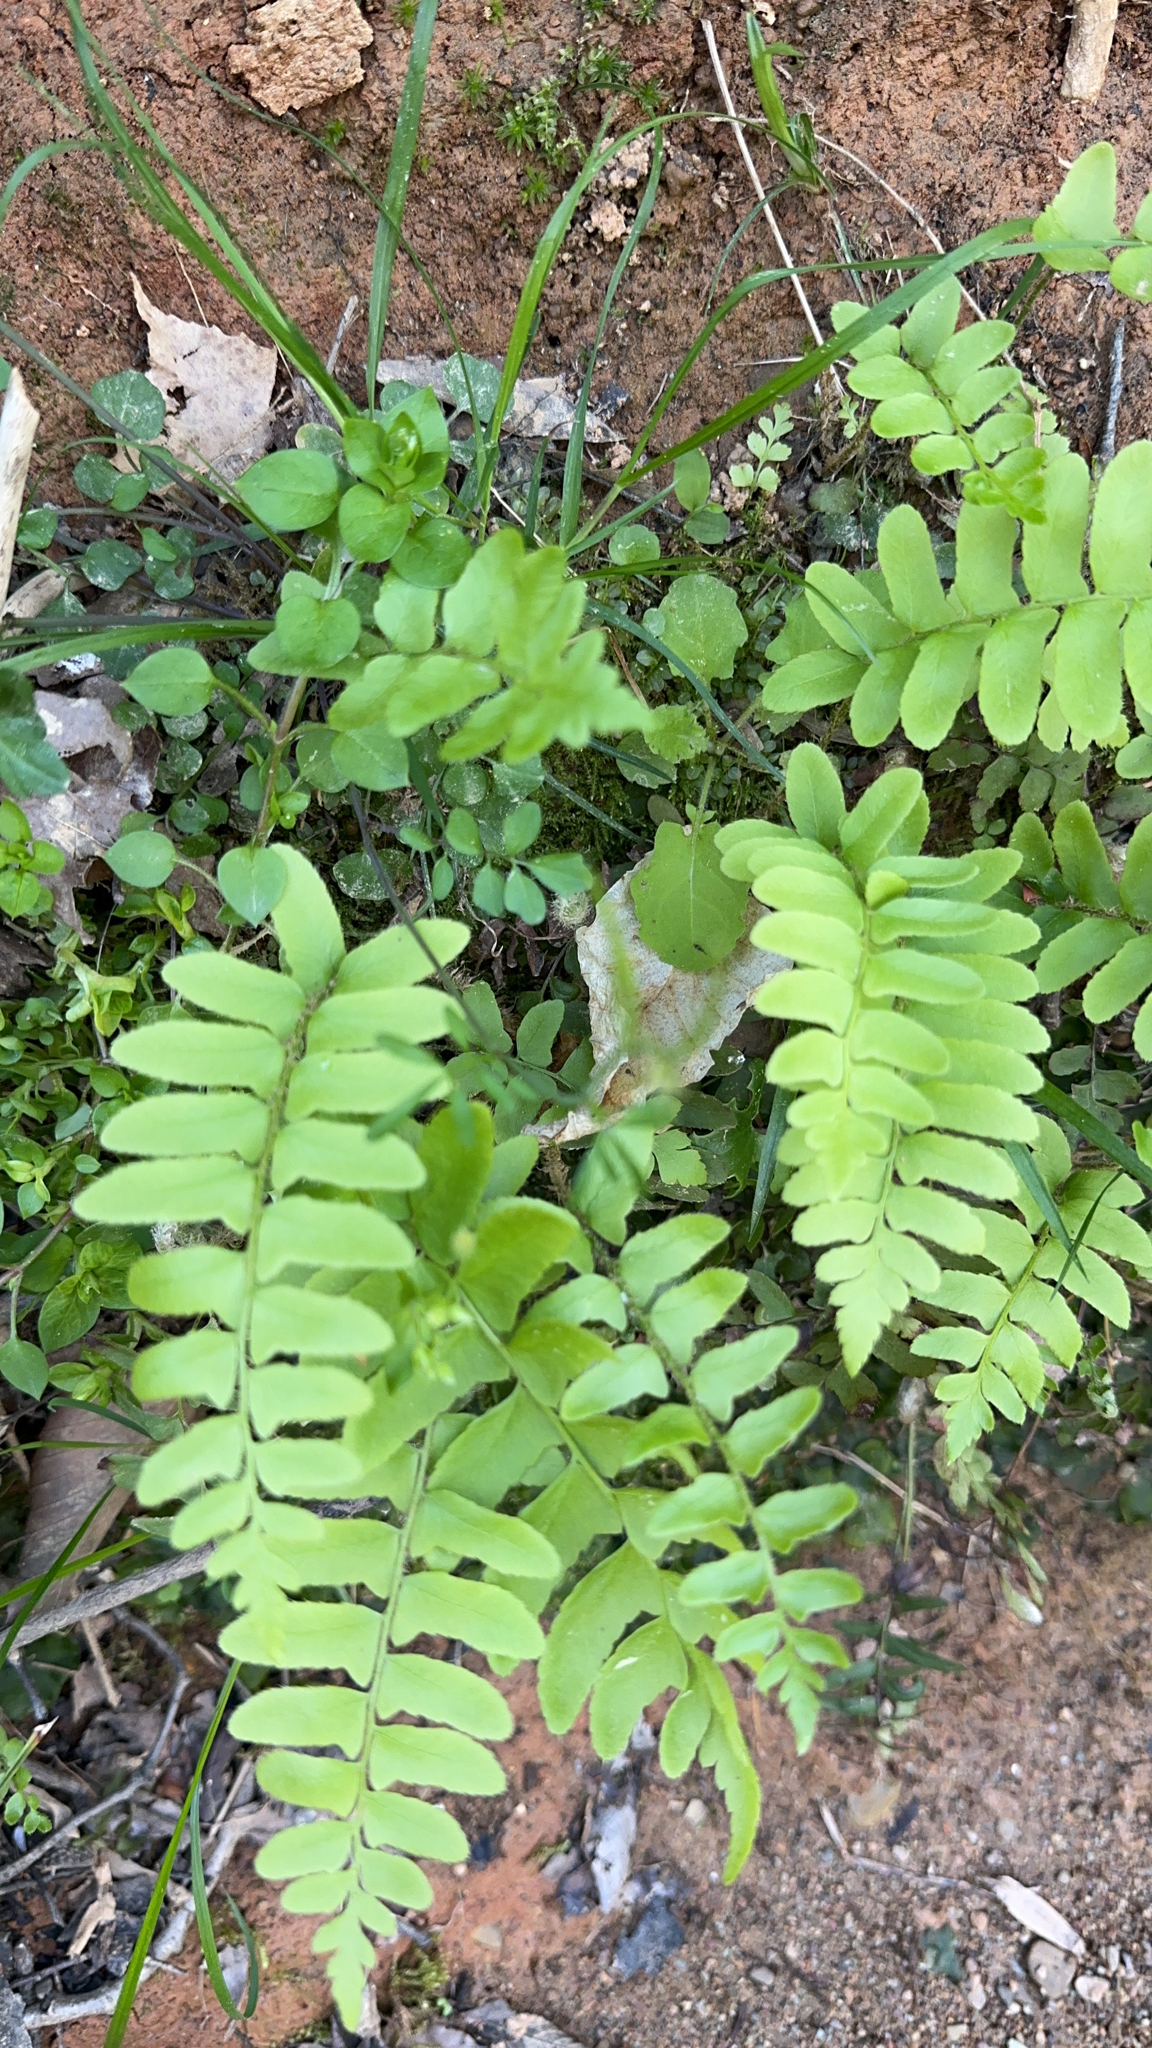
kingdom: Plantae
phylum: Tracheophyta
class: Polypodiopsida
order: Polypodiales
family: Dryopteridaceae
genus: Polystichum
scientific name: Polystichum acrostichoides
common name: Christmas fern
